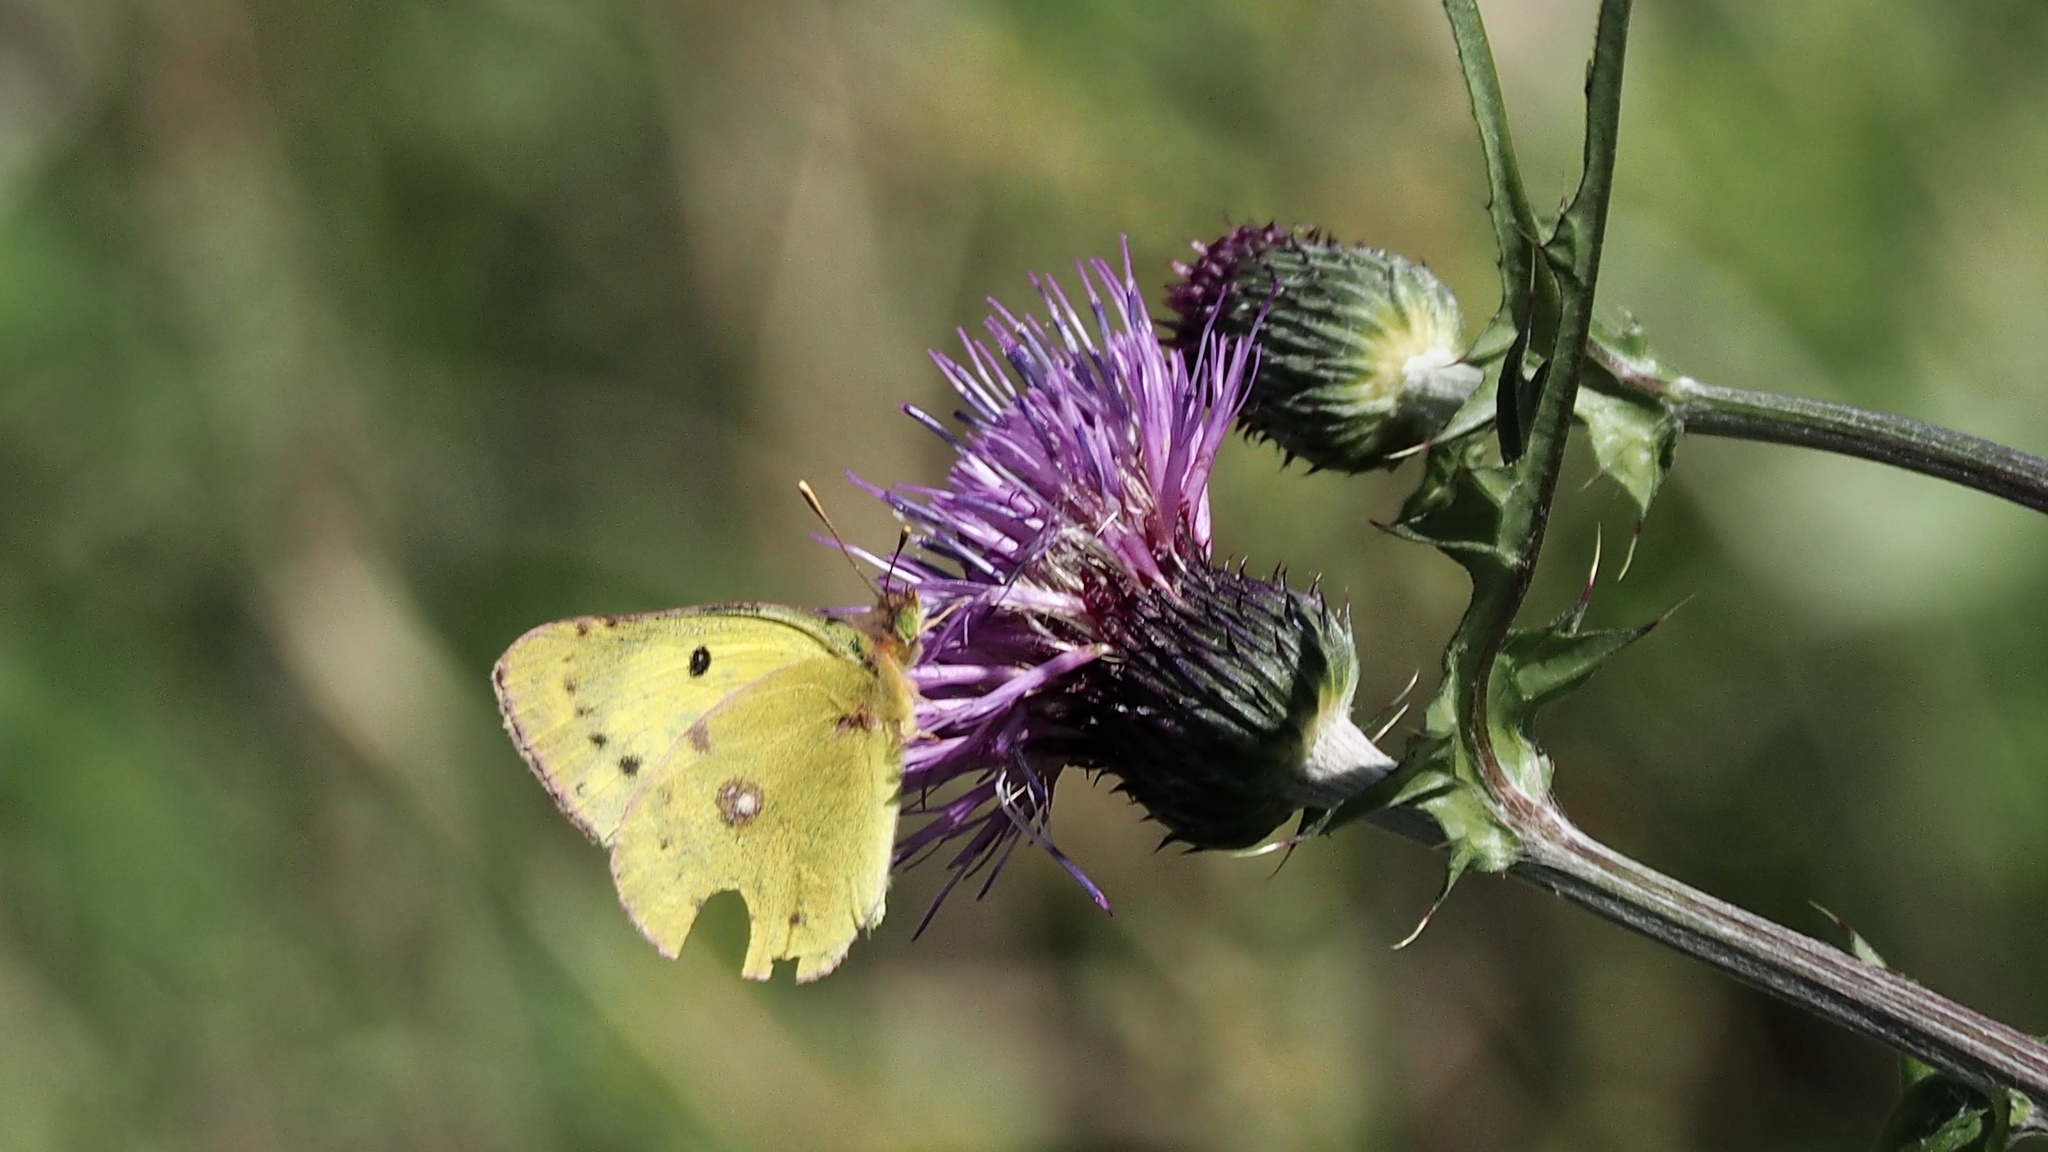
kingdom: Plantae
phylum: Tracheophyta
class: Magnoliopsida
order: Asterales
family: Asteraceae
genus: Cirsium
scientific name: Cirsium japonicum
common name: Japanese thistle
